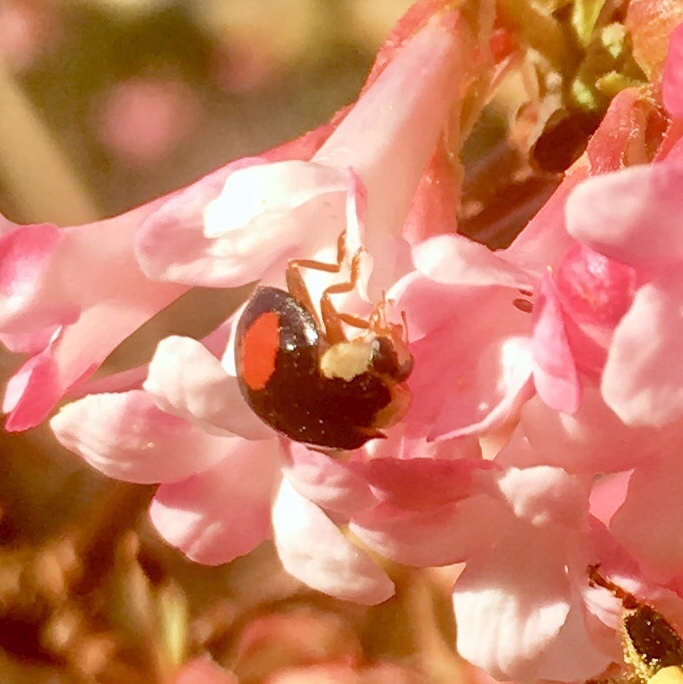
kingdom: Animalia
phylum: Arthropoda
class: Insecta
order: Coleoptera
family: Coccinellidae
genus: Harmonia
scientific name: Harmonia axyridis
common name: Harlequin ladybird
